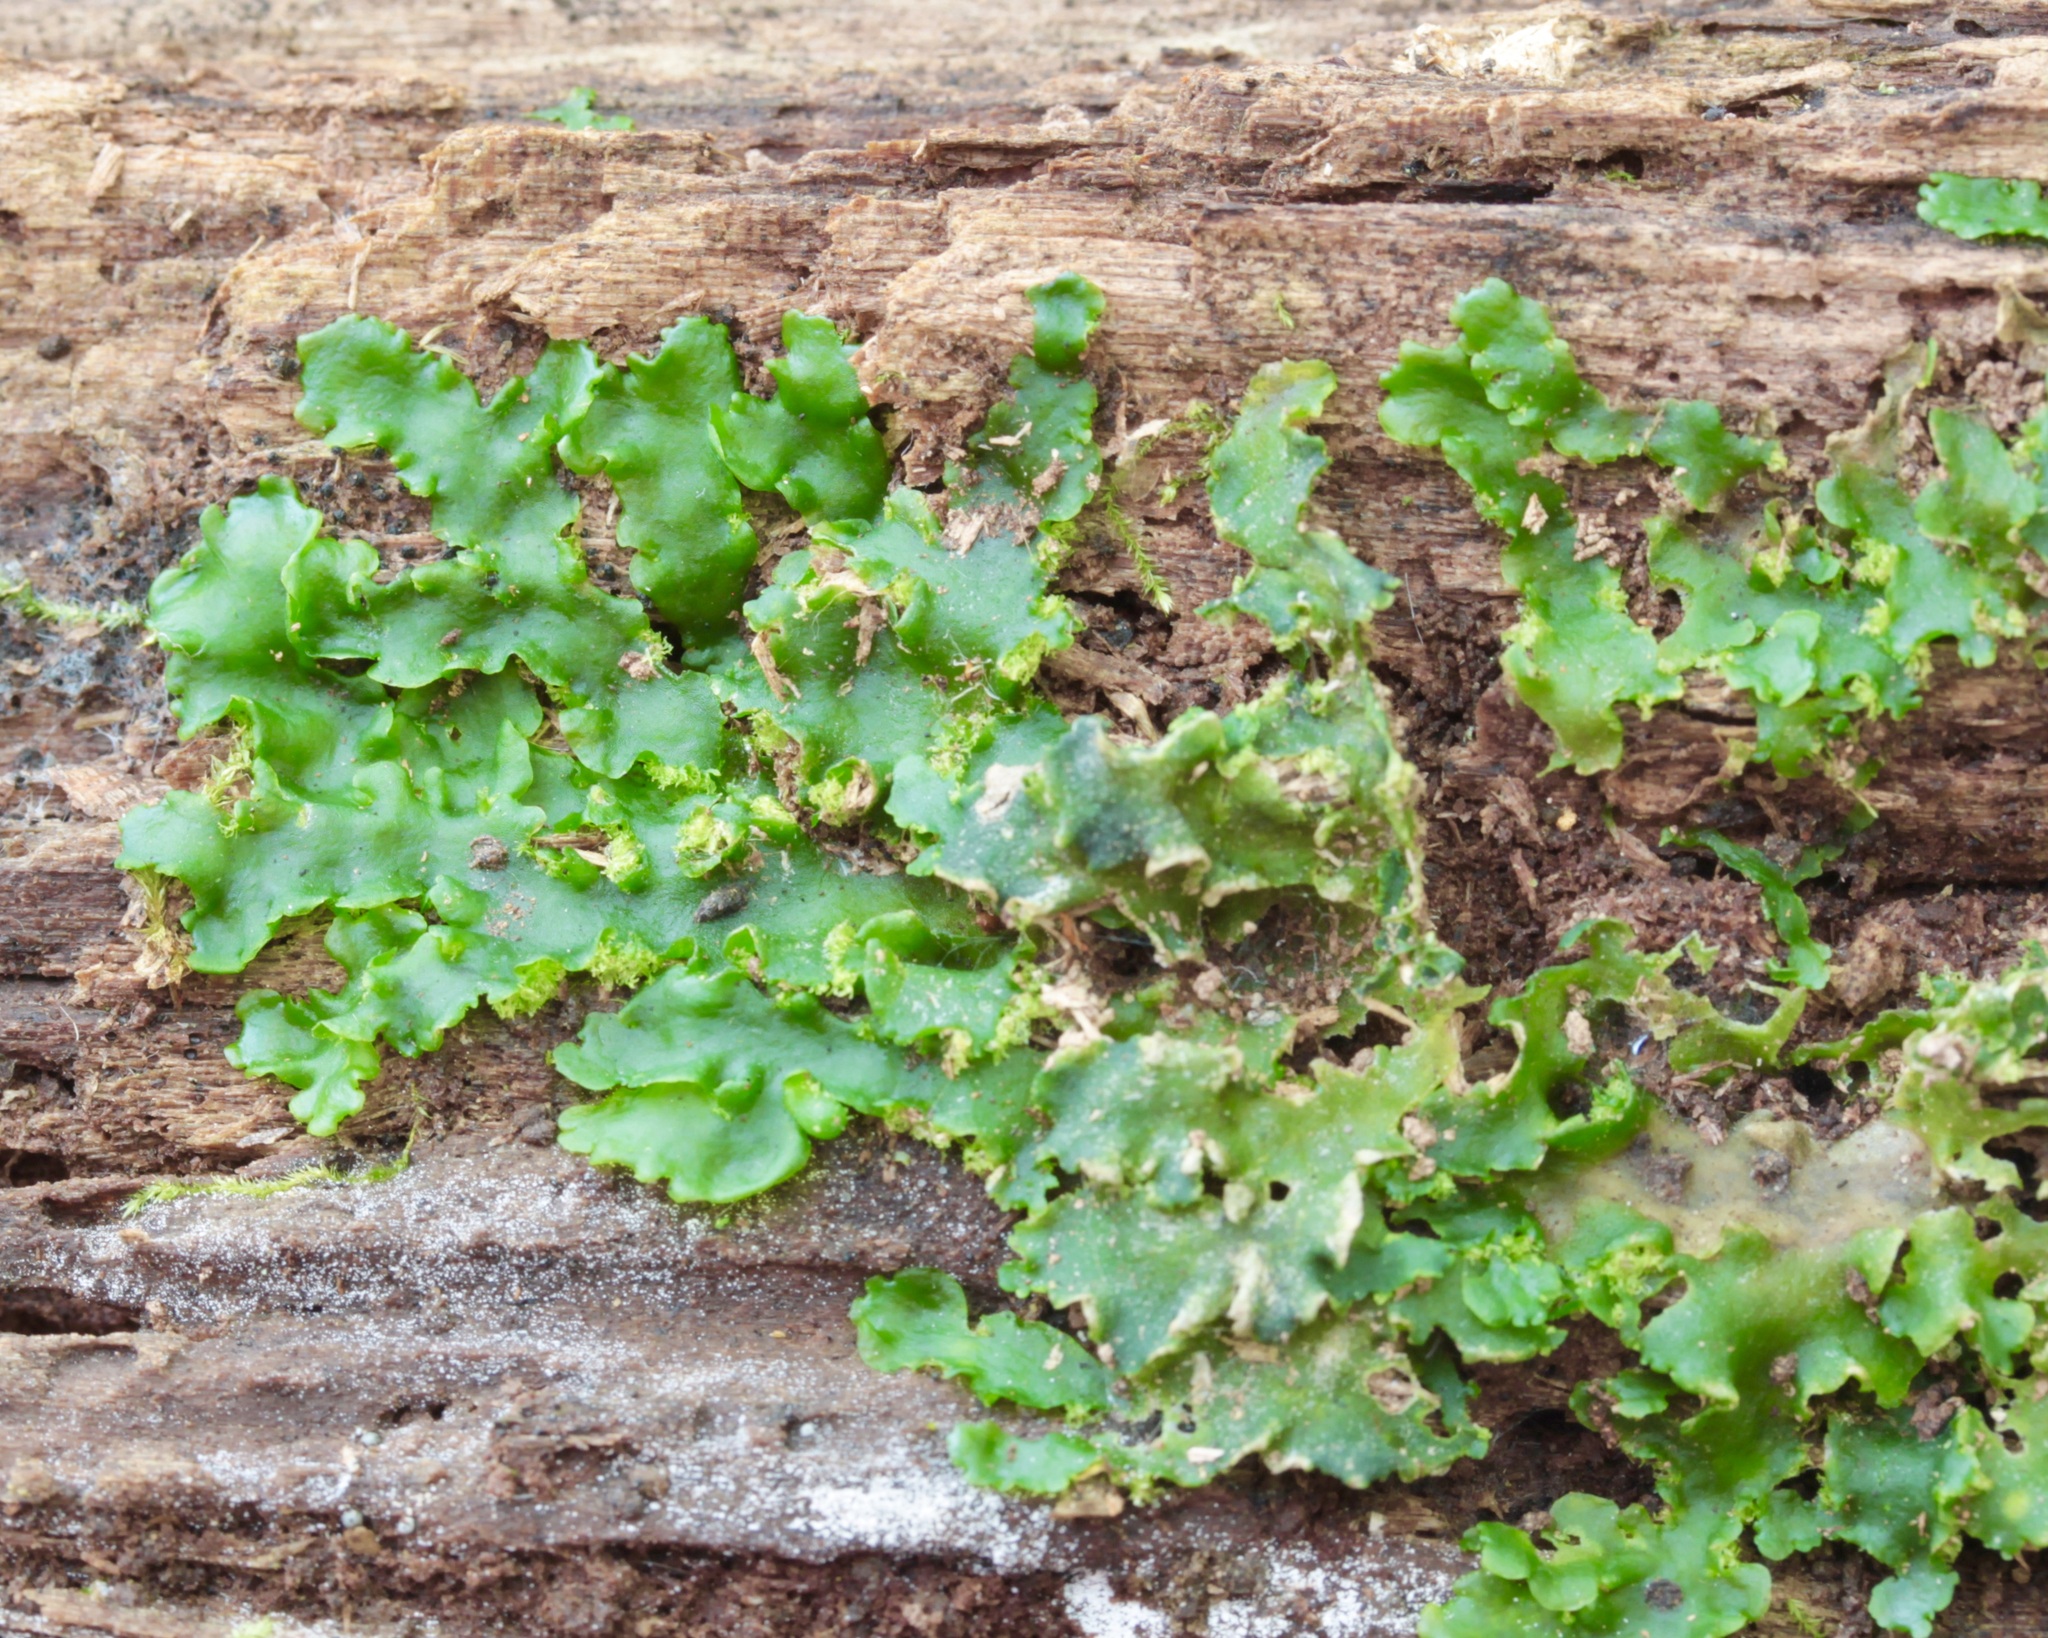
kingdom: Plantae
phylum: Marchantiophyta
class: Jungermanniopsida
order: Metzgeriales
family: Aneuraceae
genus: Aneura
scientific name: Aneura pinguis
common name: Common greasewort
